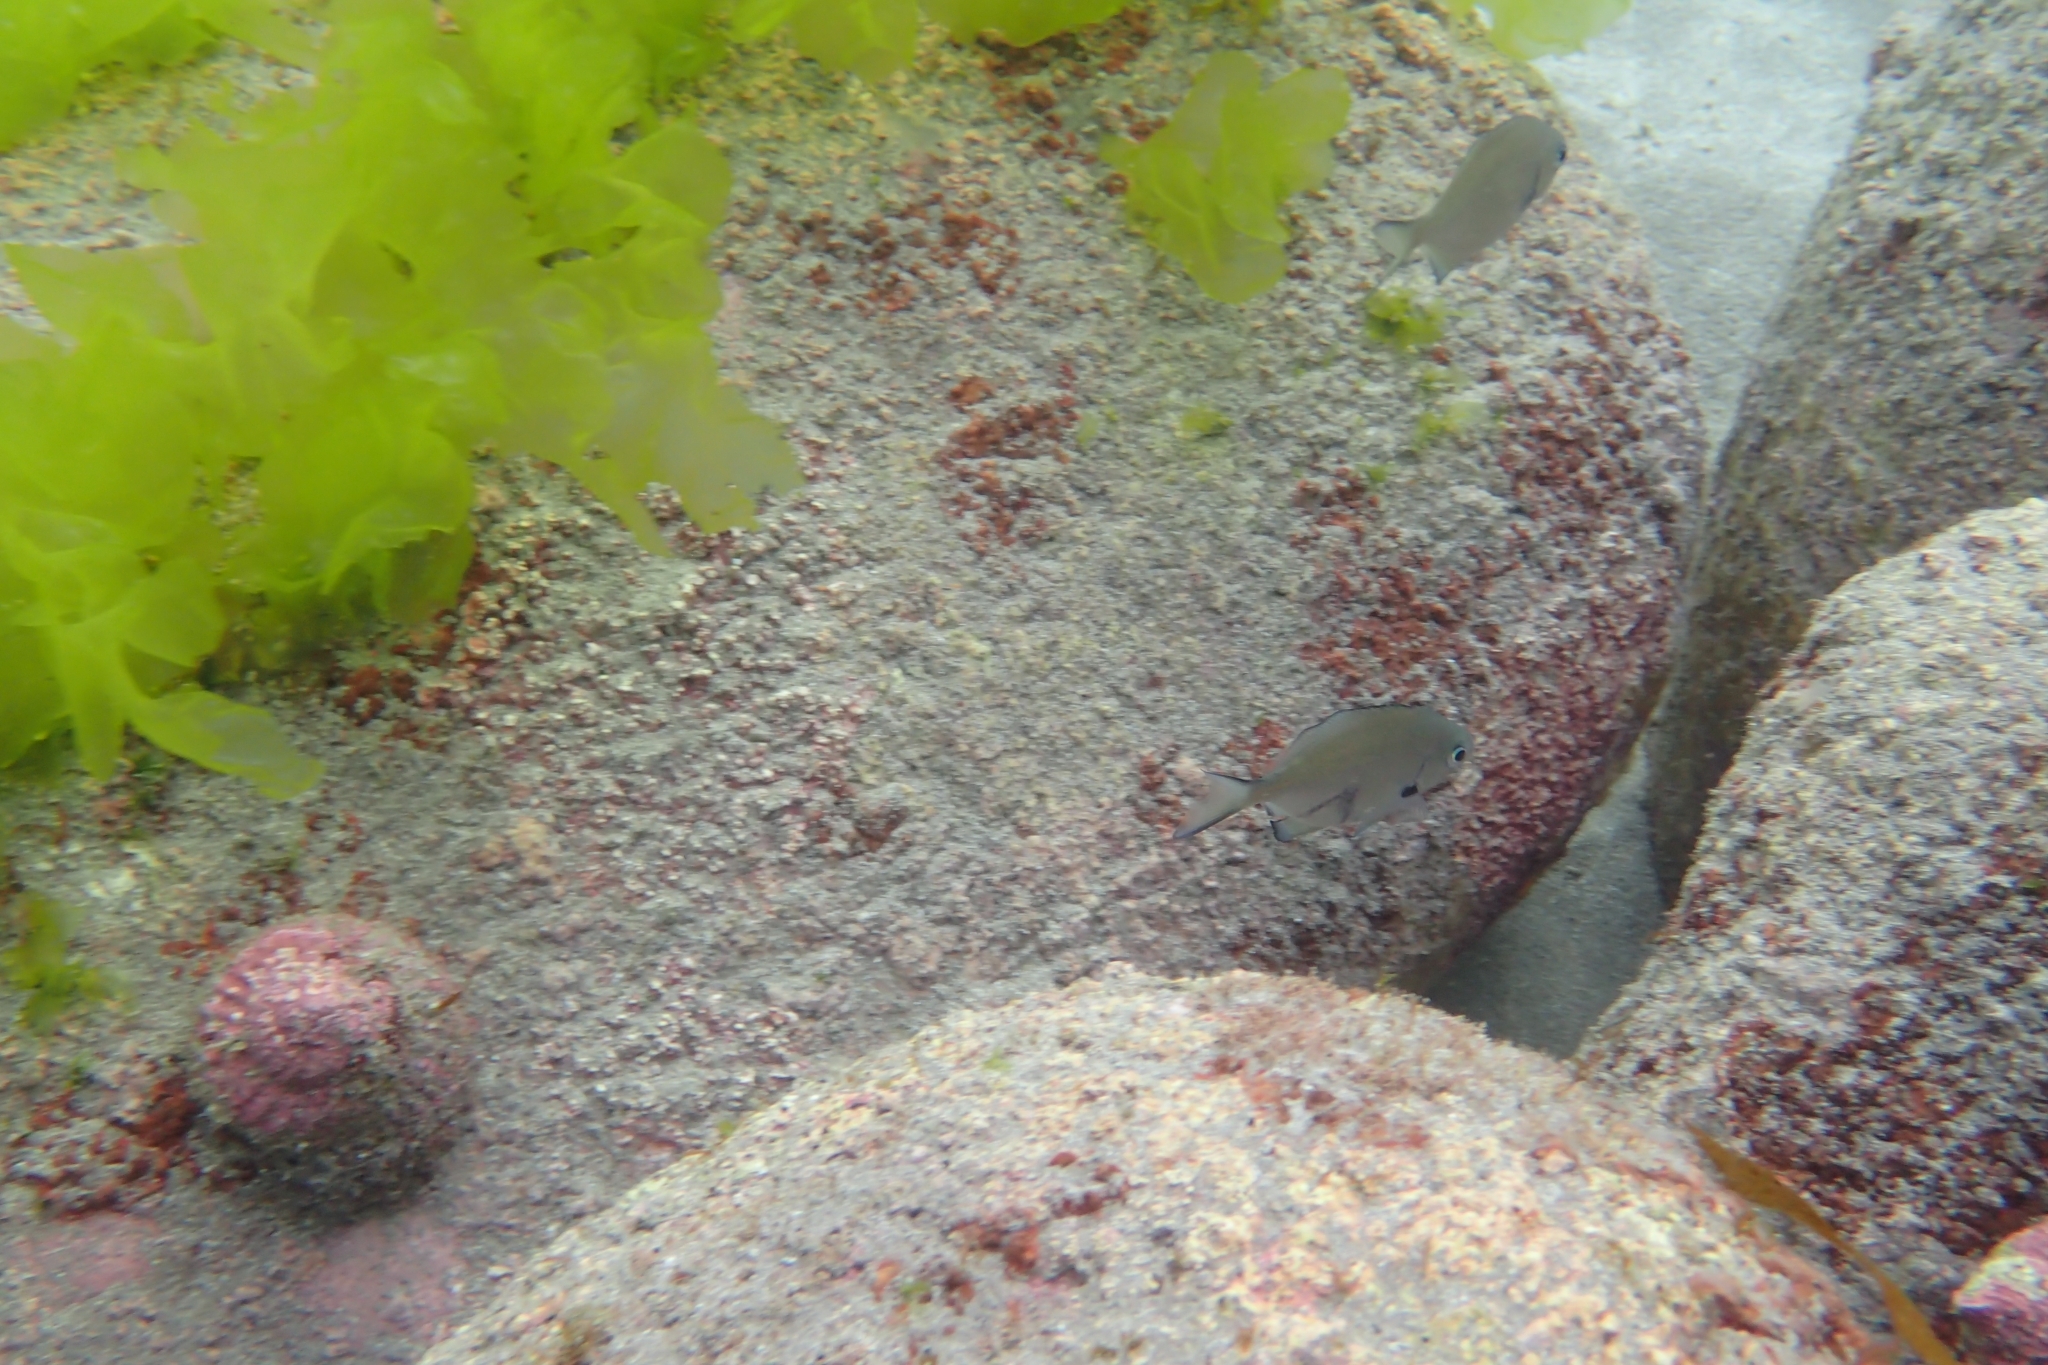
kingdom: Animalia
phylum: Chordata
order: Perciformes
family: Kyphosidae
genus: Scorpis
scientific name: Scorpis lineolata
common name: Sweep
